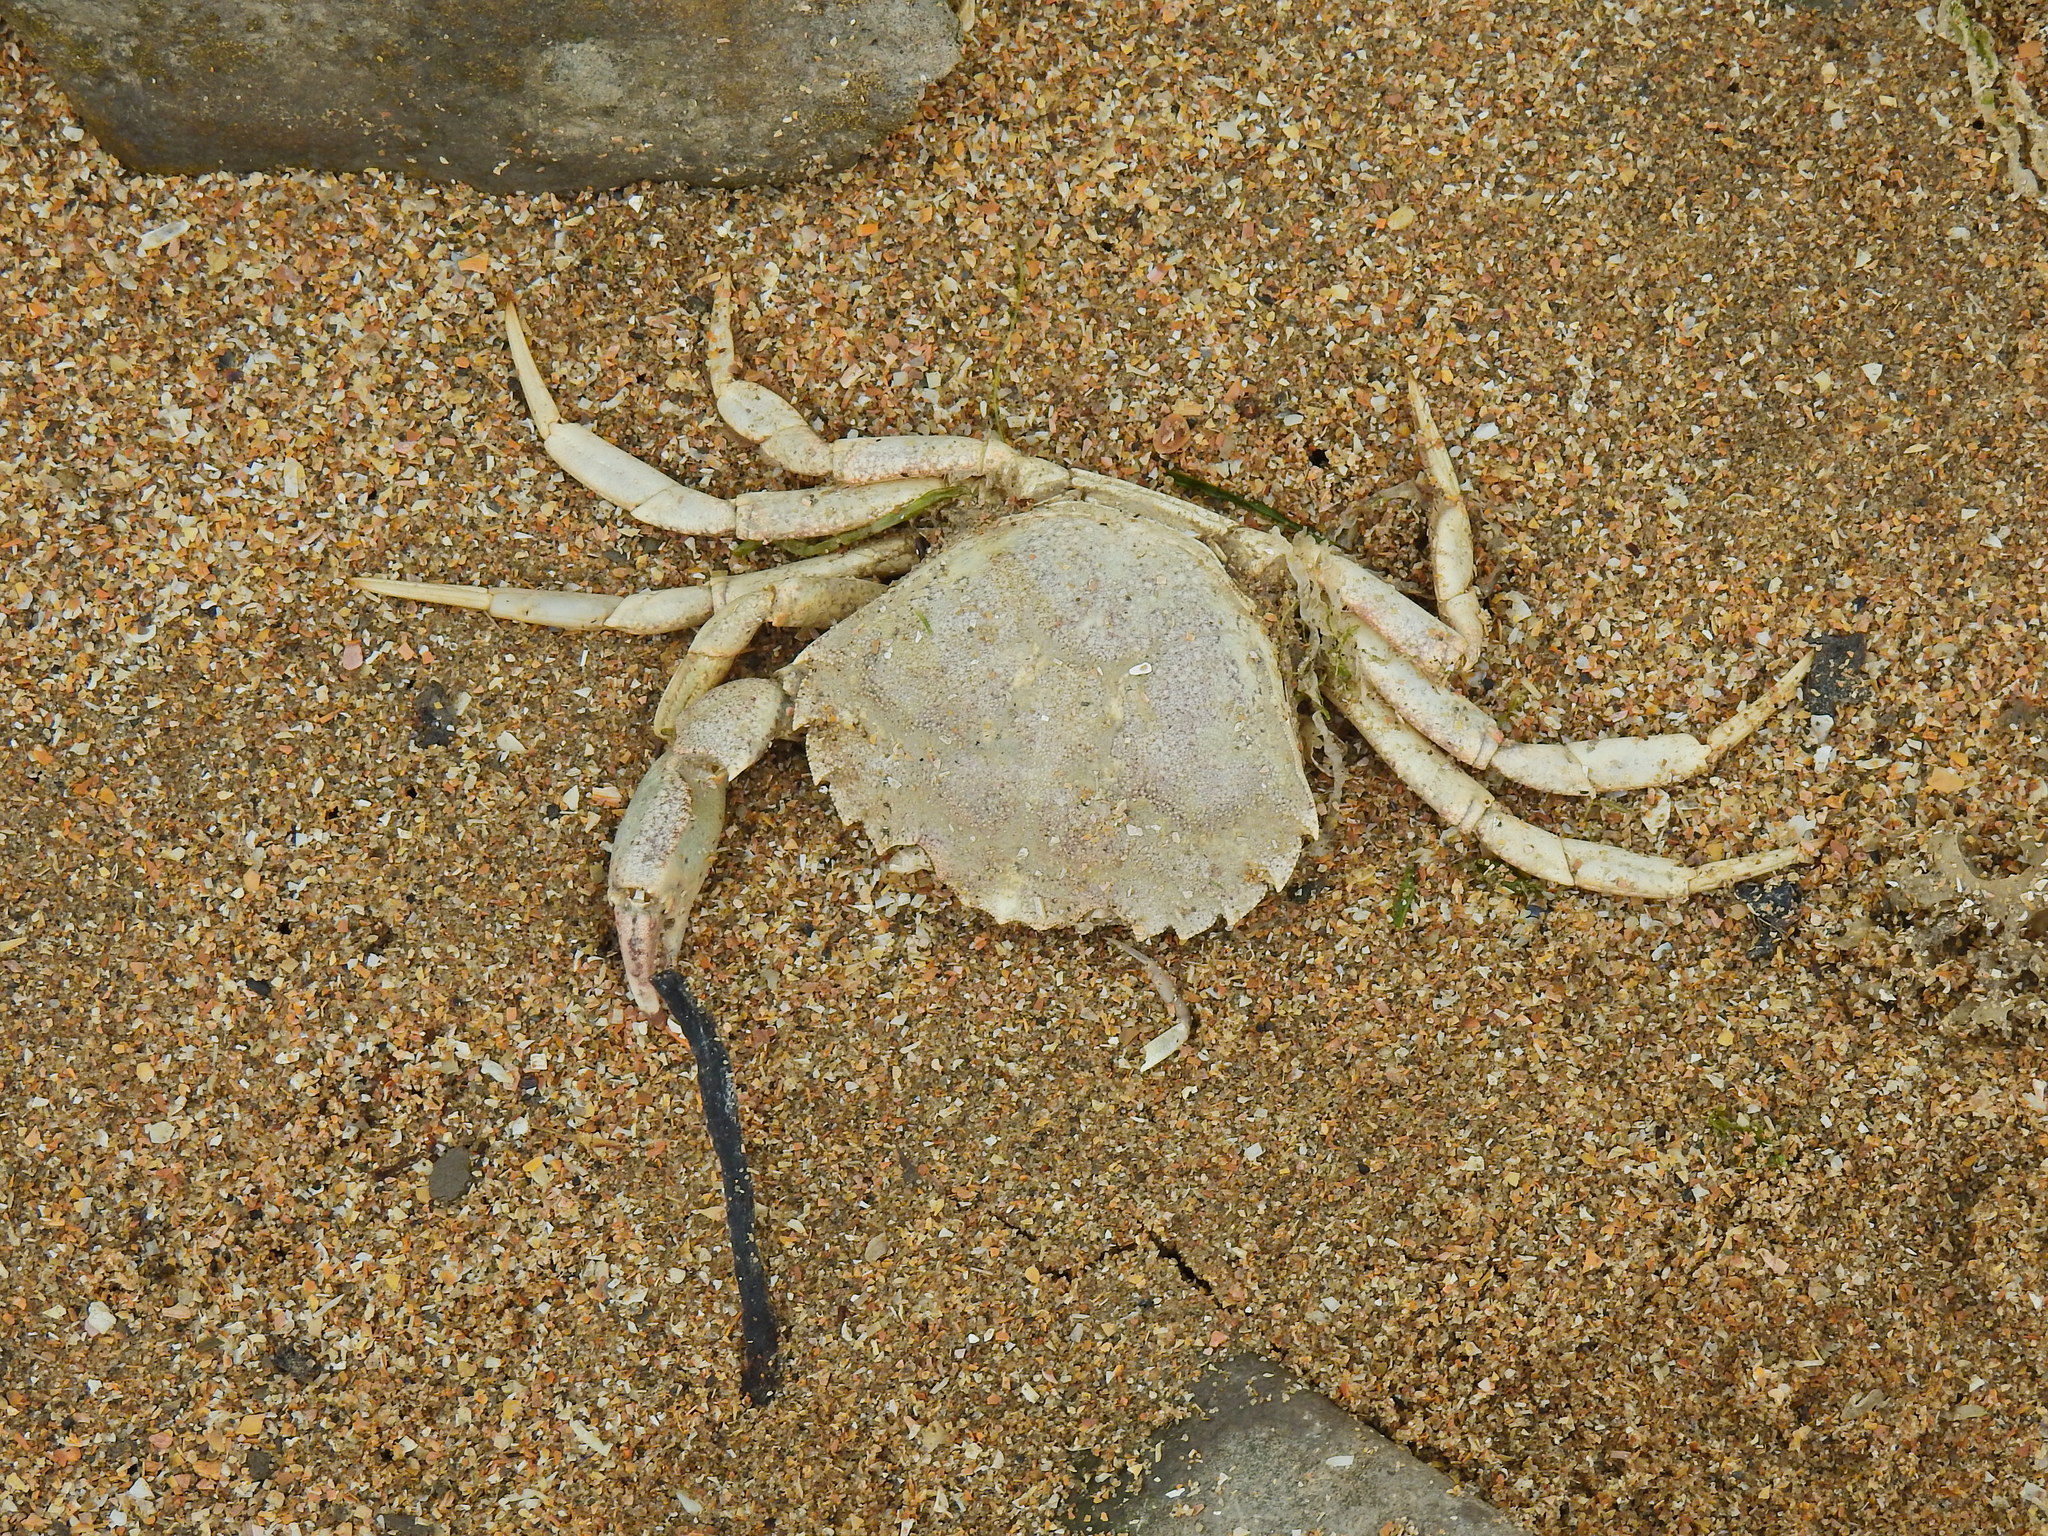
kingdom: Animalia
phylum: Arthropoda
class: Malacostraca
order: Decapoda
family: Carcinidae
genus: Carcinus
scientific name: Carcinus maenas
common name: European green crab
